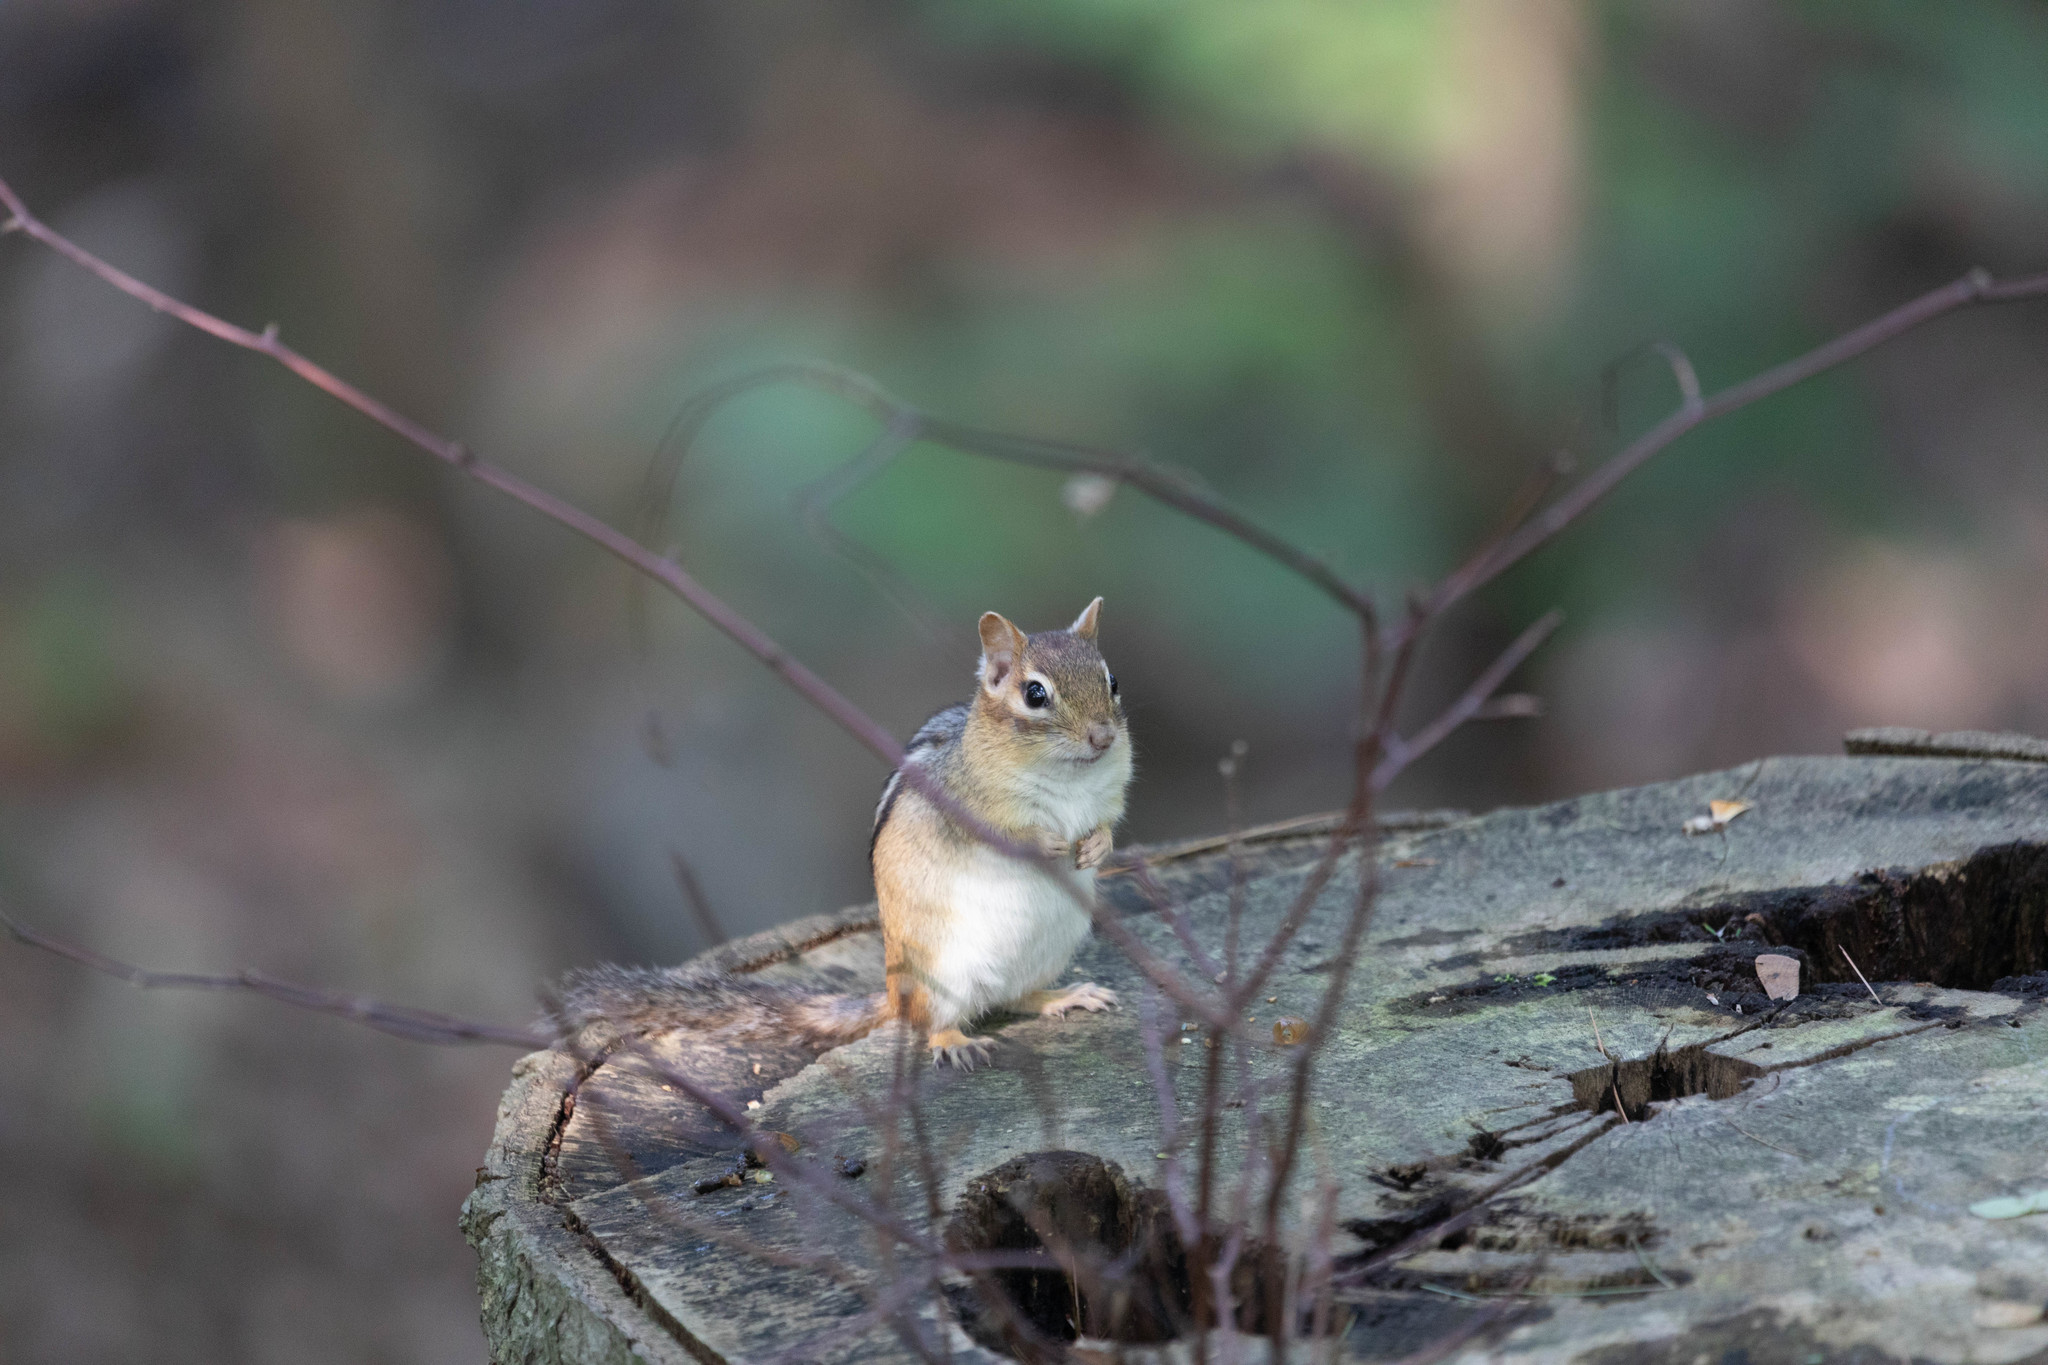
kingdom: Animalia
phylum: Chordata
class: Mammalia
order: Rodentia
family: Sciuridae
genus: Tamias
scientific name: Tamias striatus
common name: Eastern chipmunk
